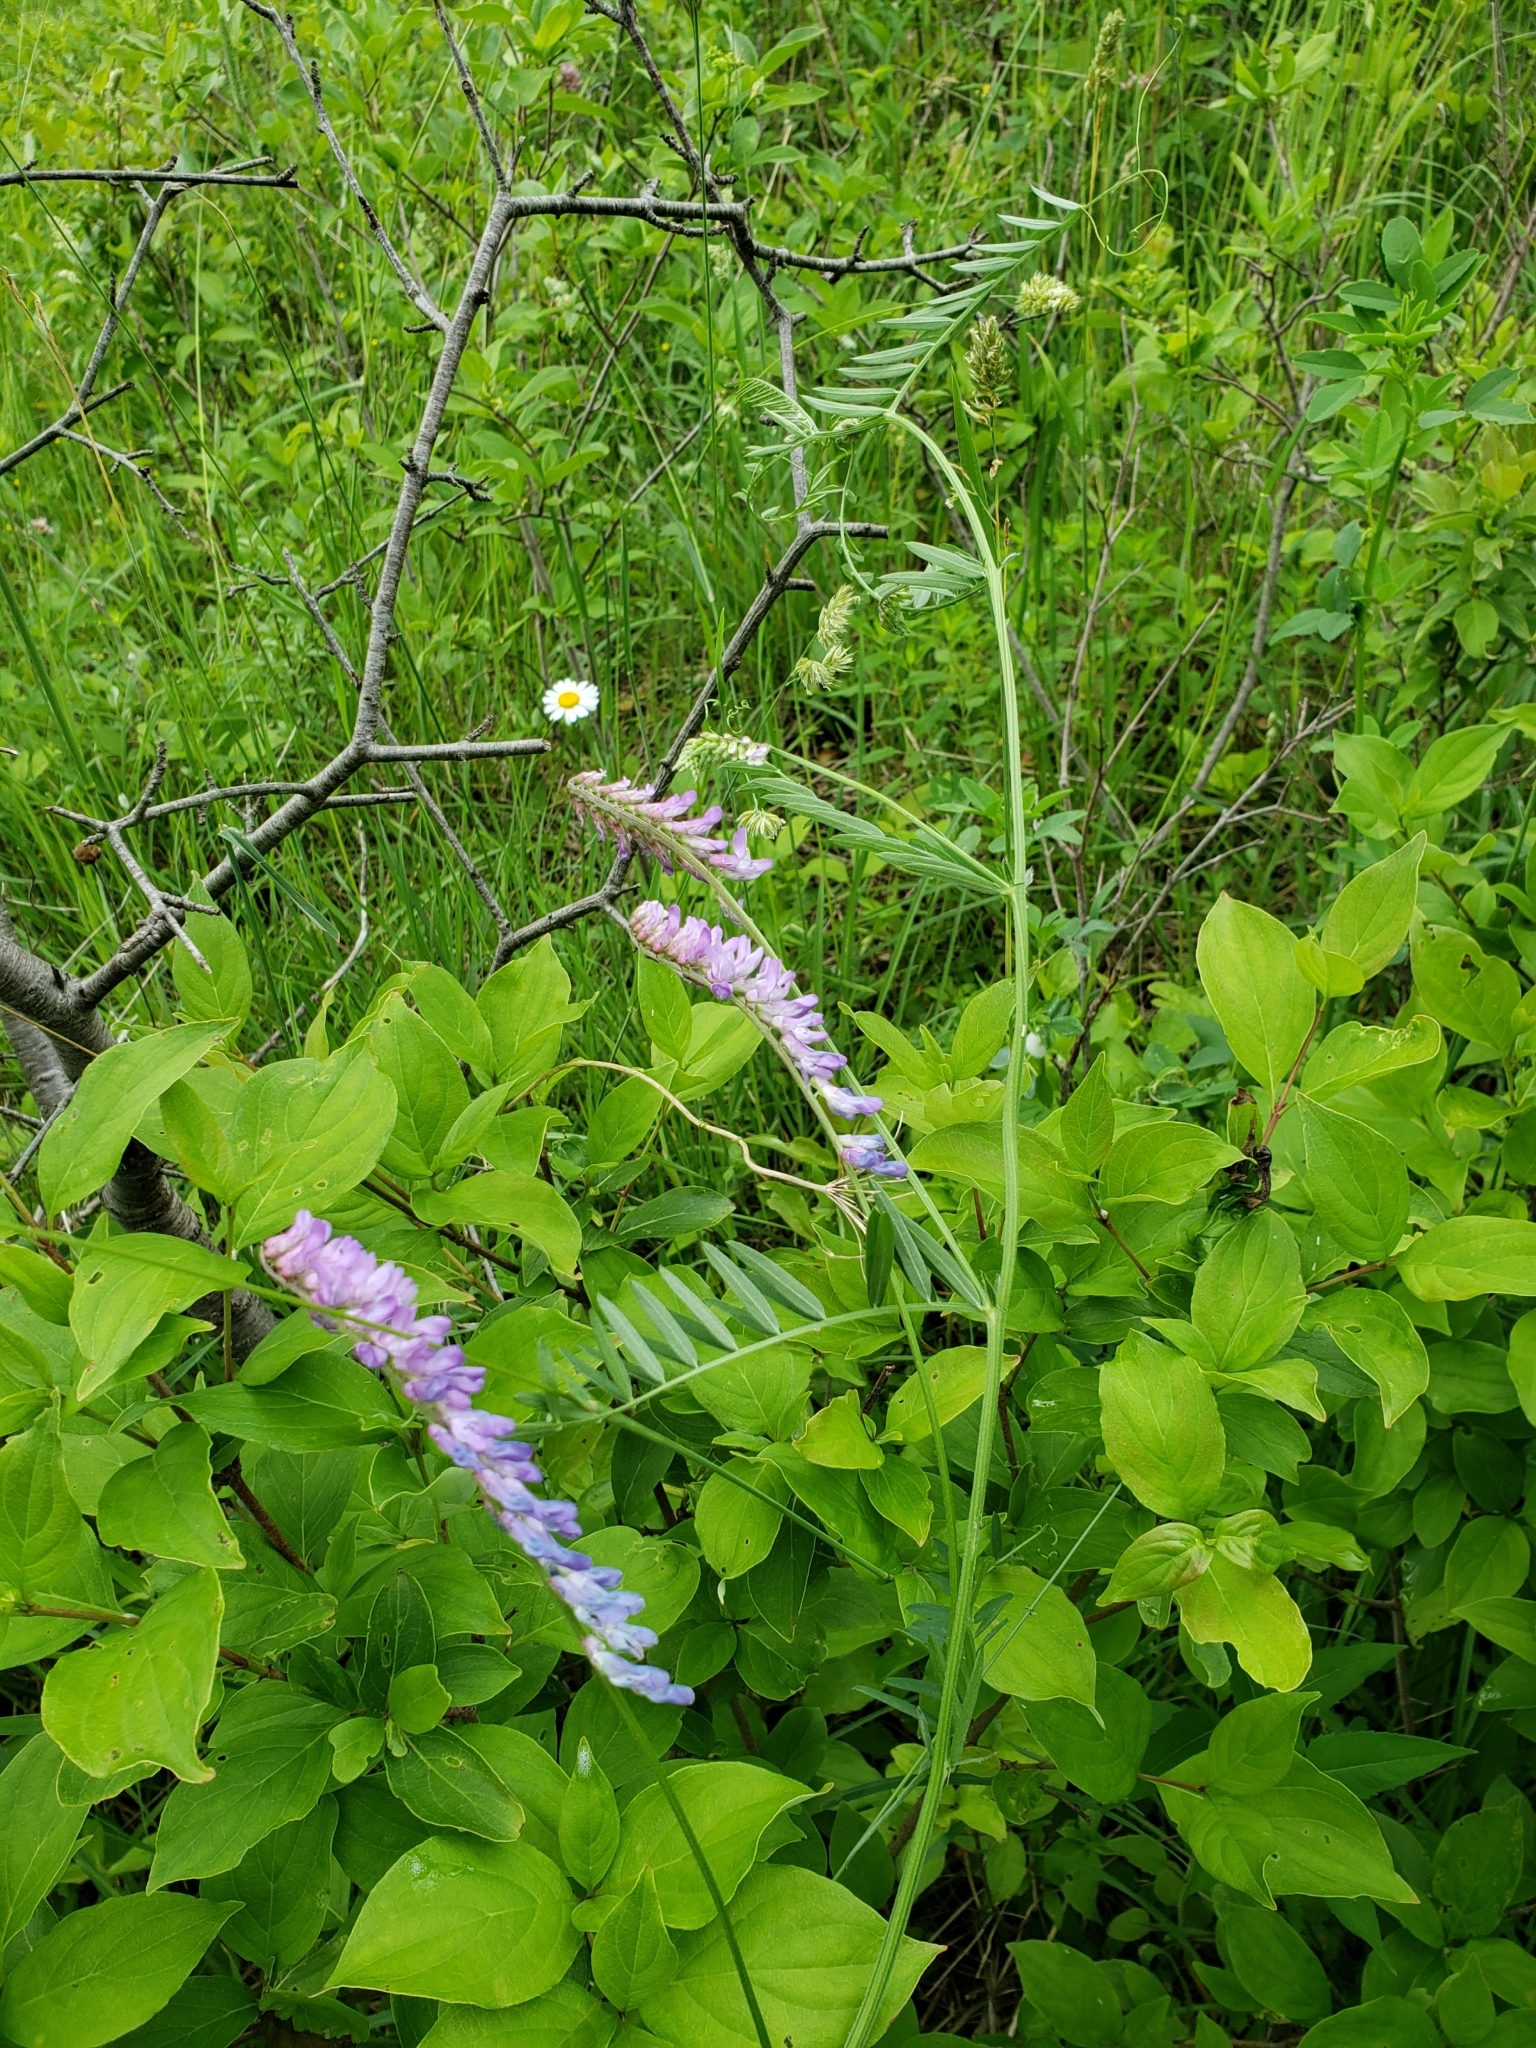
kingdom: Plantae
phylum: Tracheophyta
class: Magnoliopsida
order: Fabales
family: Fabaceae
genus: Vicia
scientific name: Vicia cracca
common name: Bird vetch
